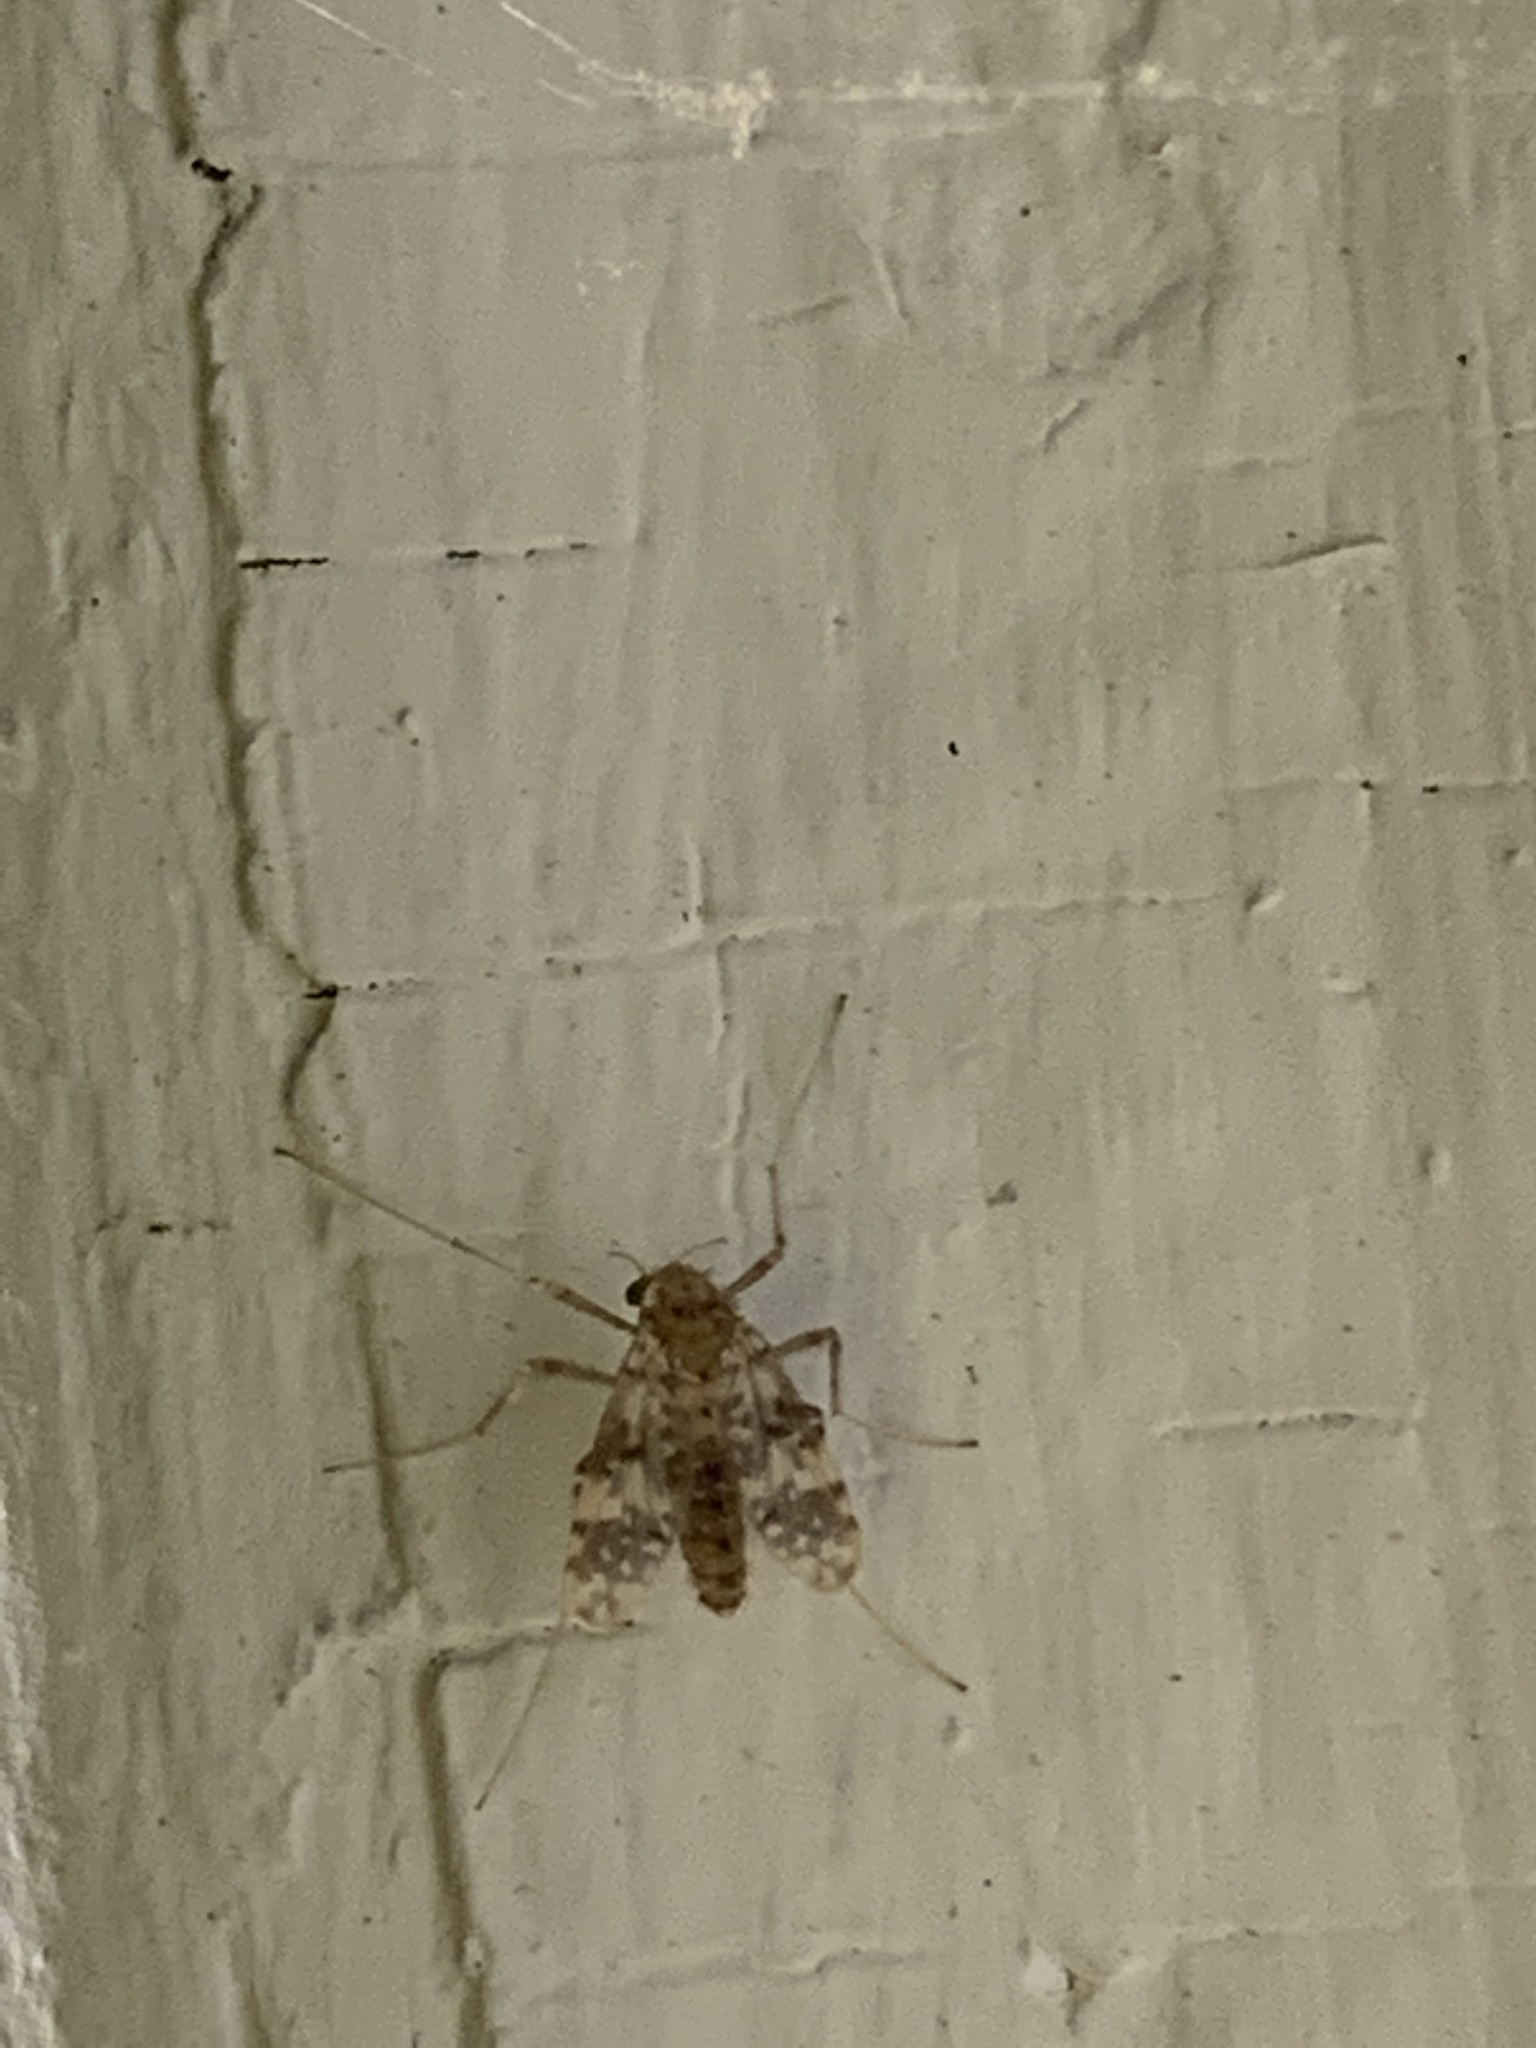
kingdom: Animalia
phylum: Arthropoda
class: Insecta
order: Diptera
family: Chironomidae
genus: Psectrotanypus
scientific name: Psectrotanypus dyari
